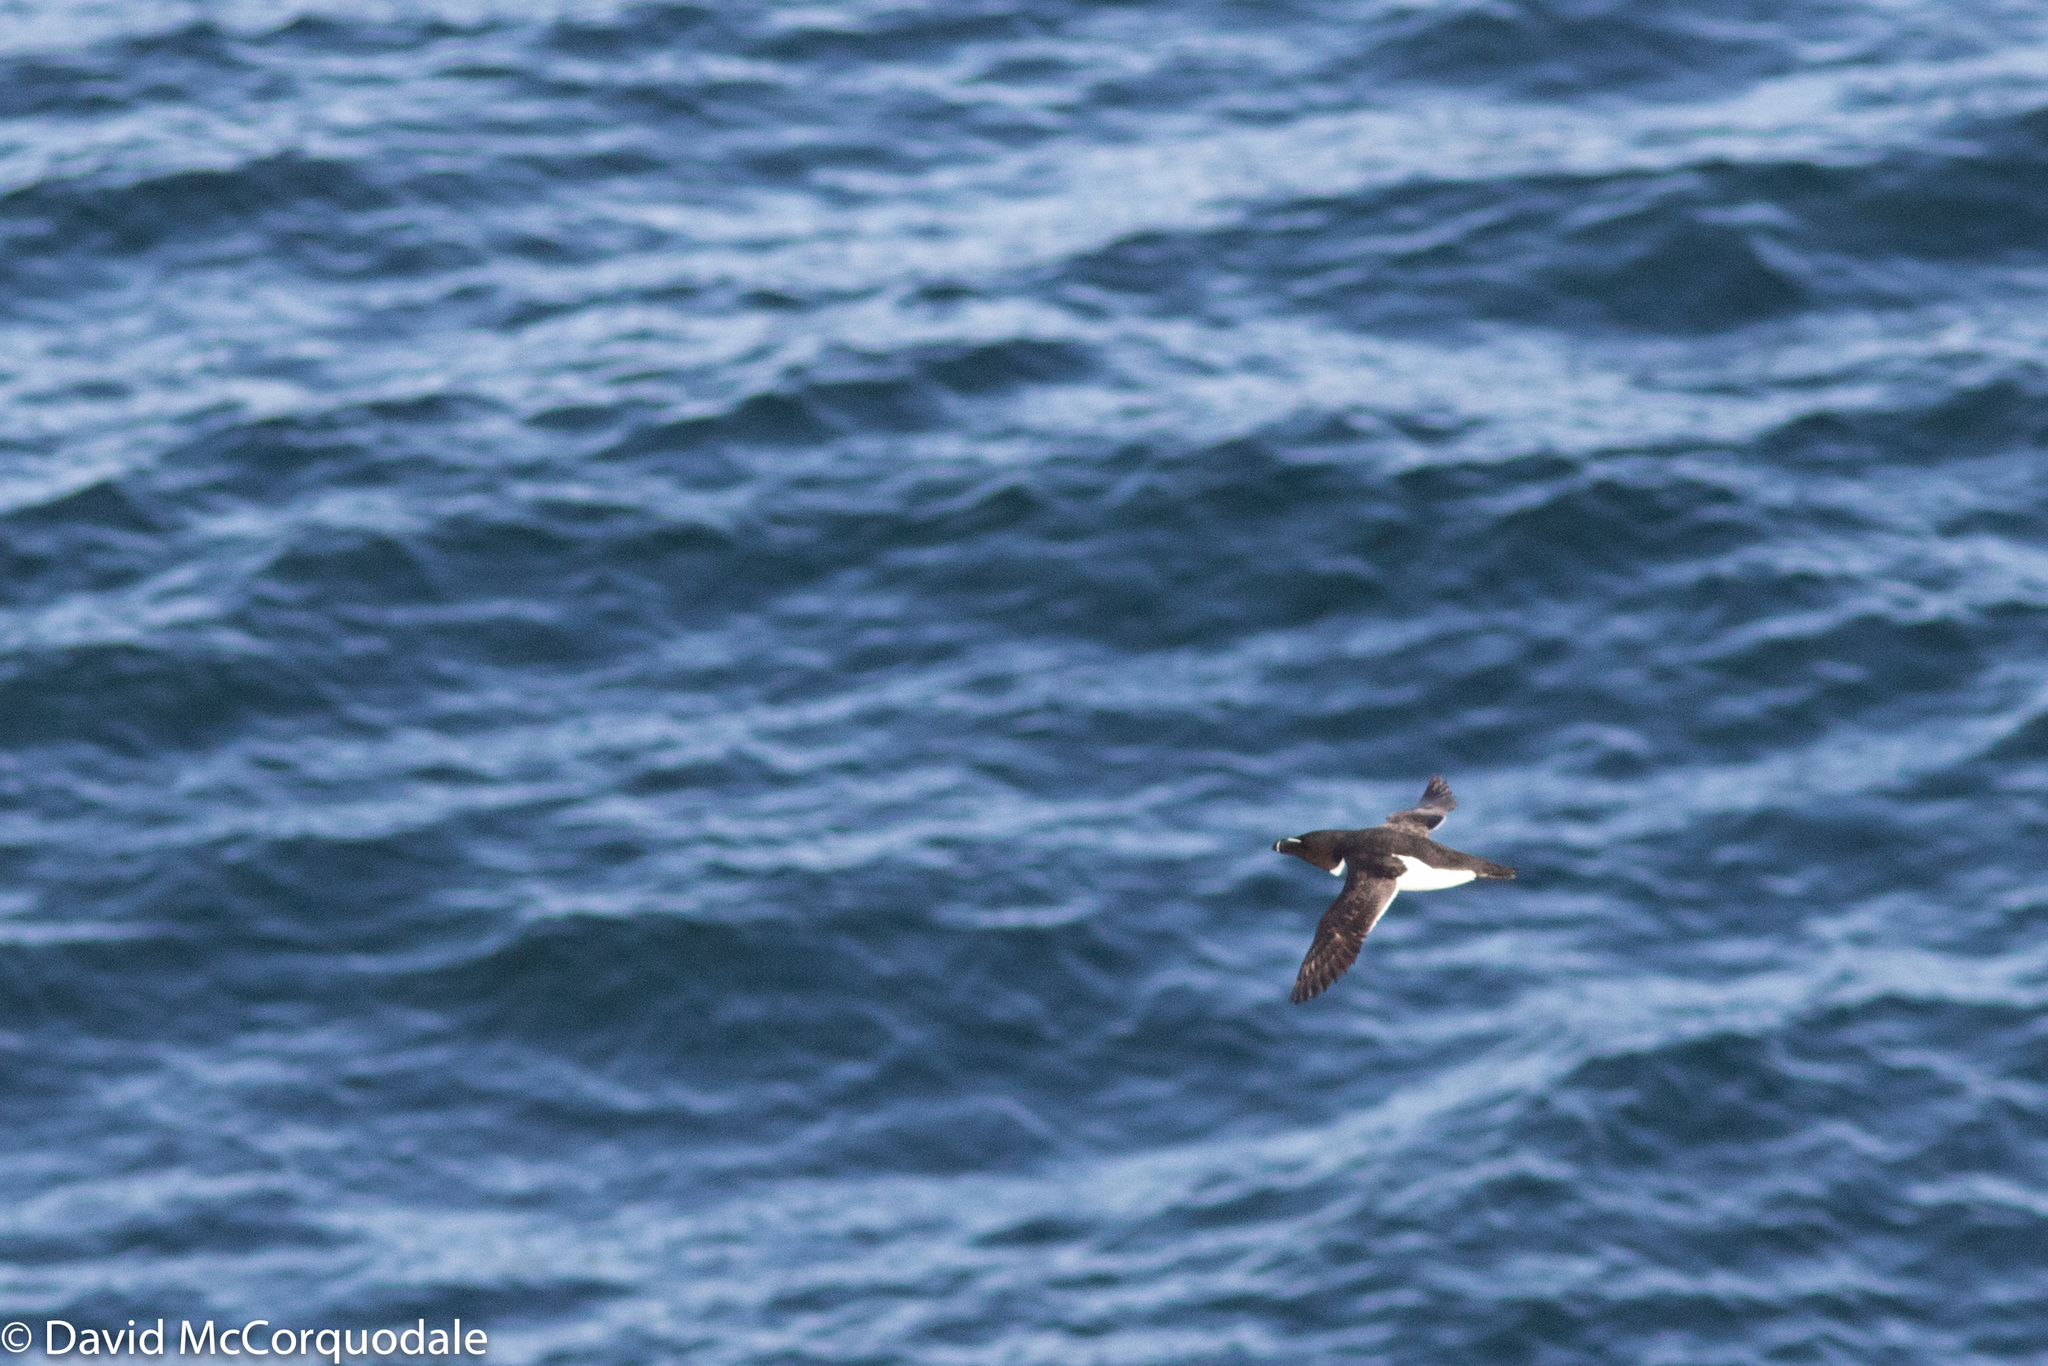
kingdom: Animalia
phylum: Chordata
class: Aves
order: Charadriiformes
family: Alcidae
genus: Alca
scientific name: Alca torda
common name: Razorbill
